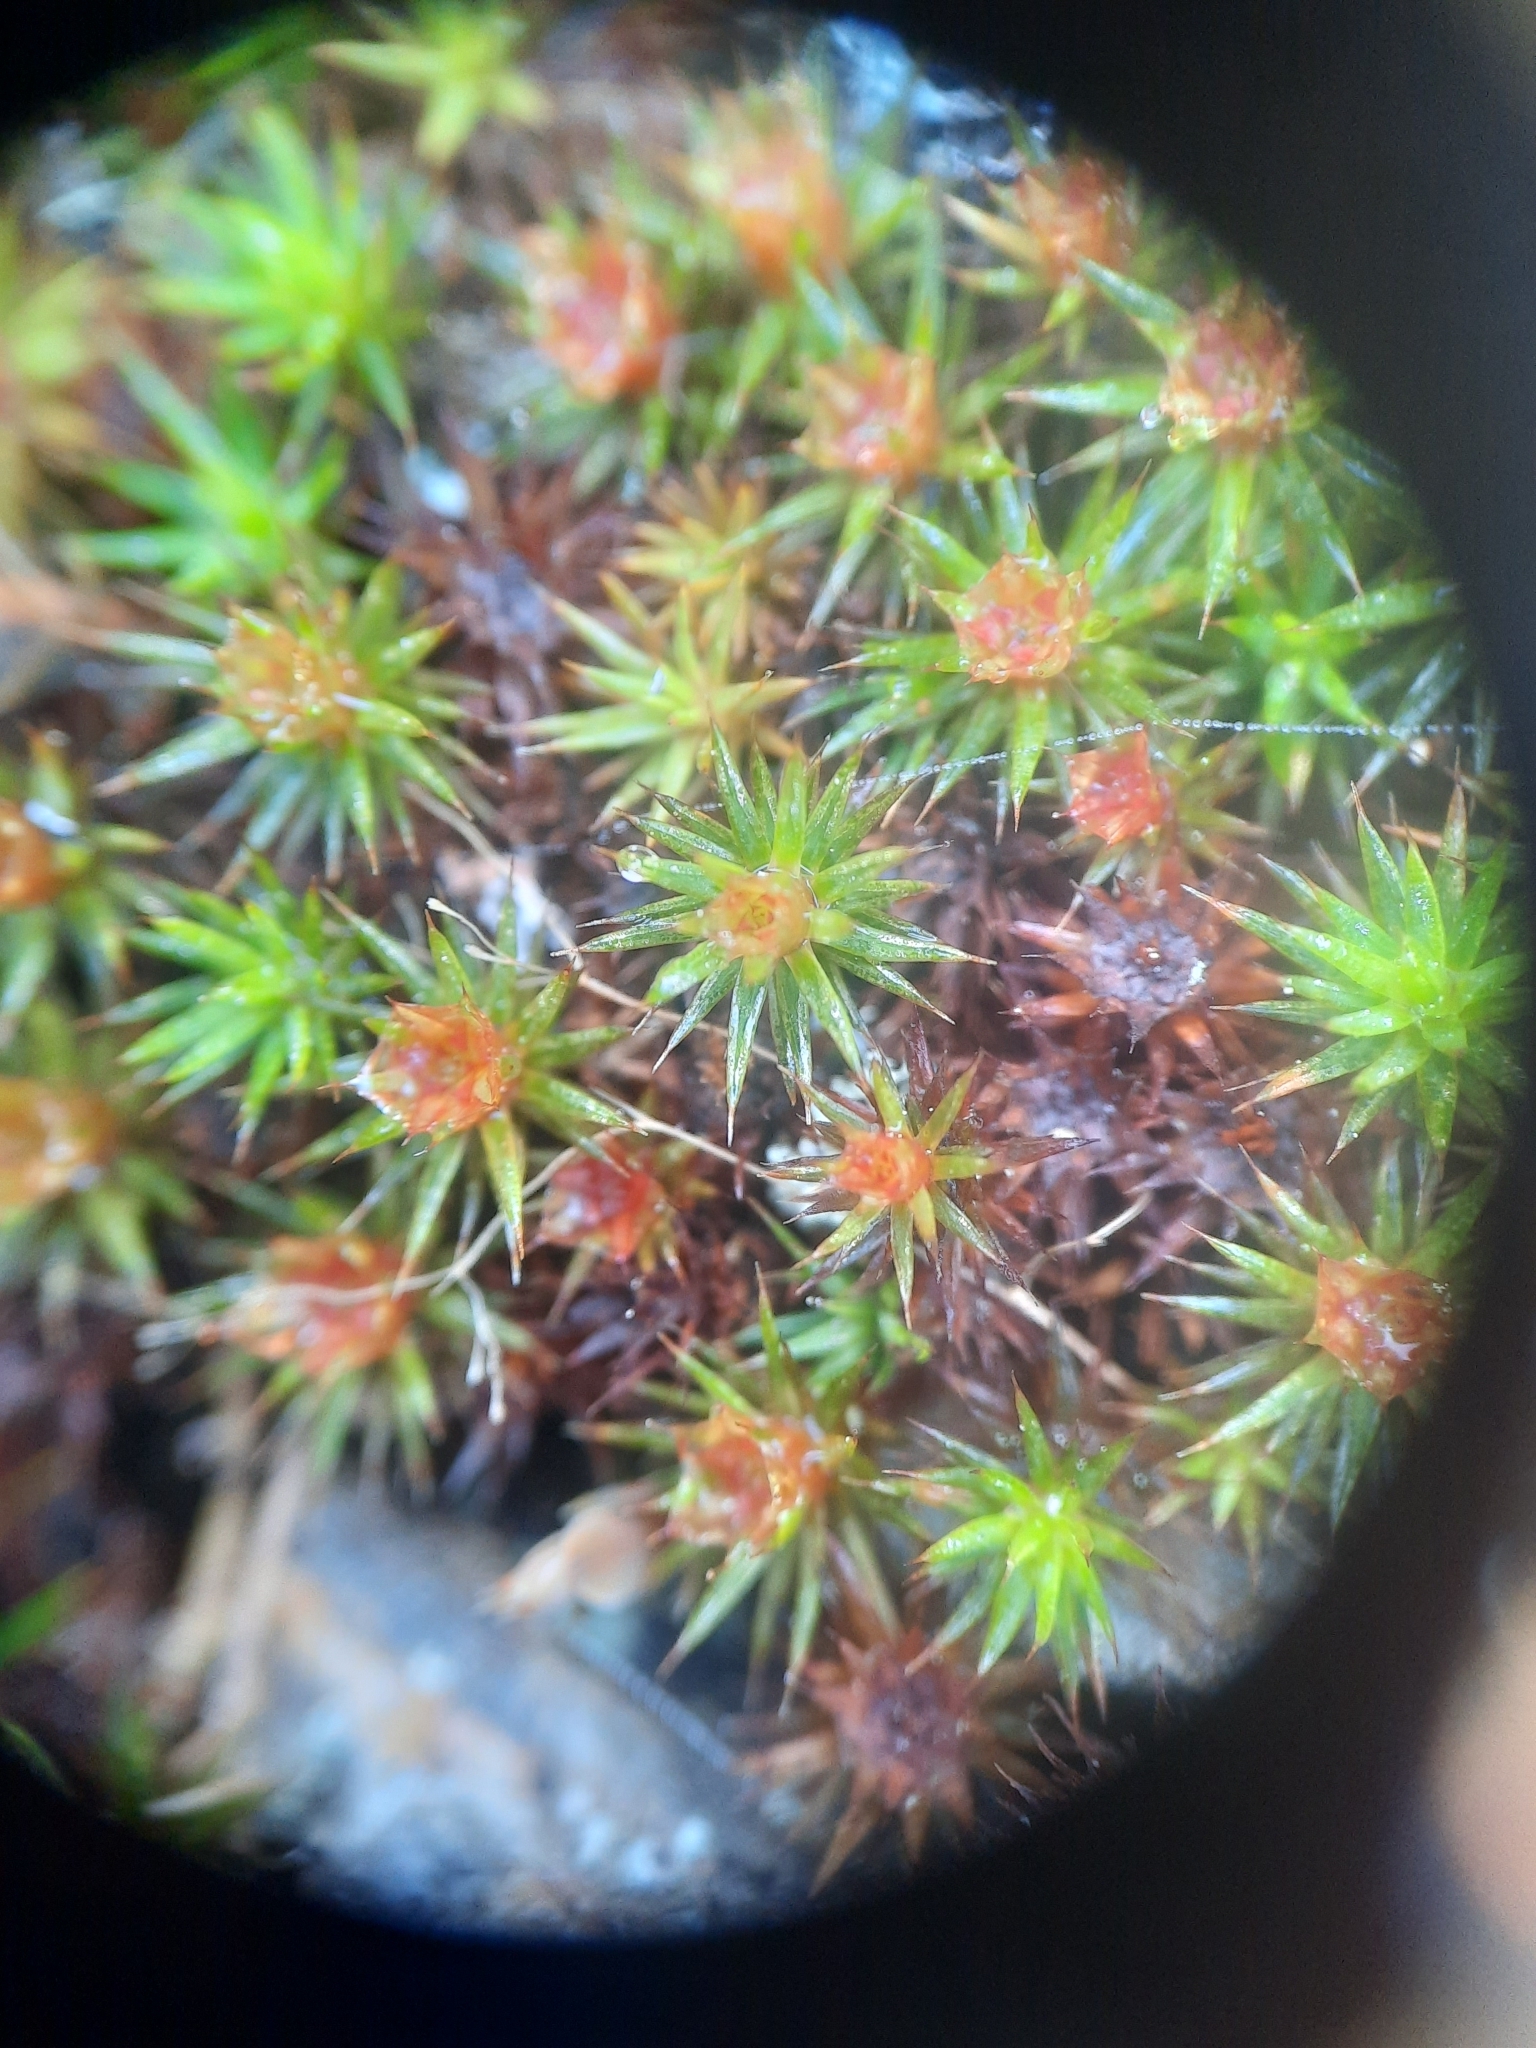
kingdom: Plantae
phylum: Bryophyta
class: Polytrichopsida
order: Polytrichales
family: Polytrichaceae
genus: Polytrichum
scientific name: Polytrichum juniperinum
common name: Juniper haircap moss
